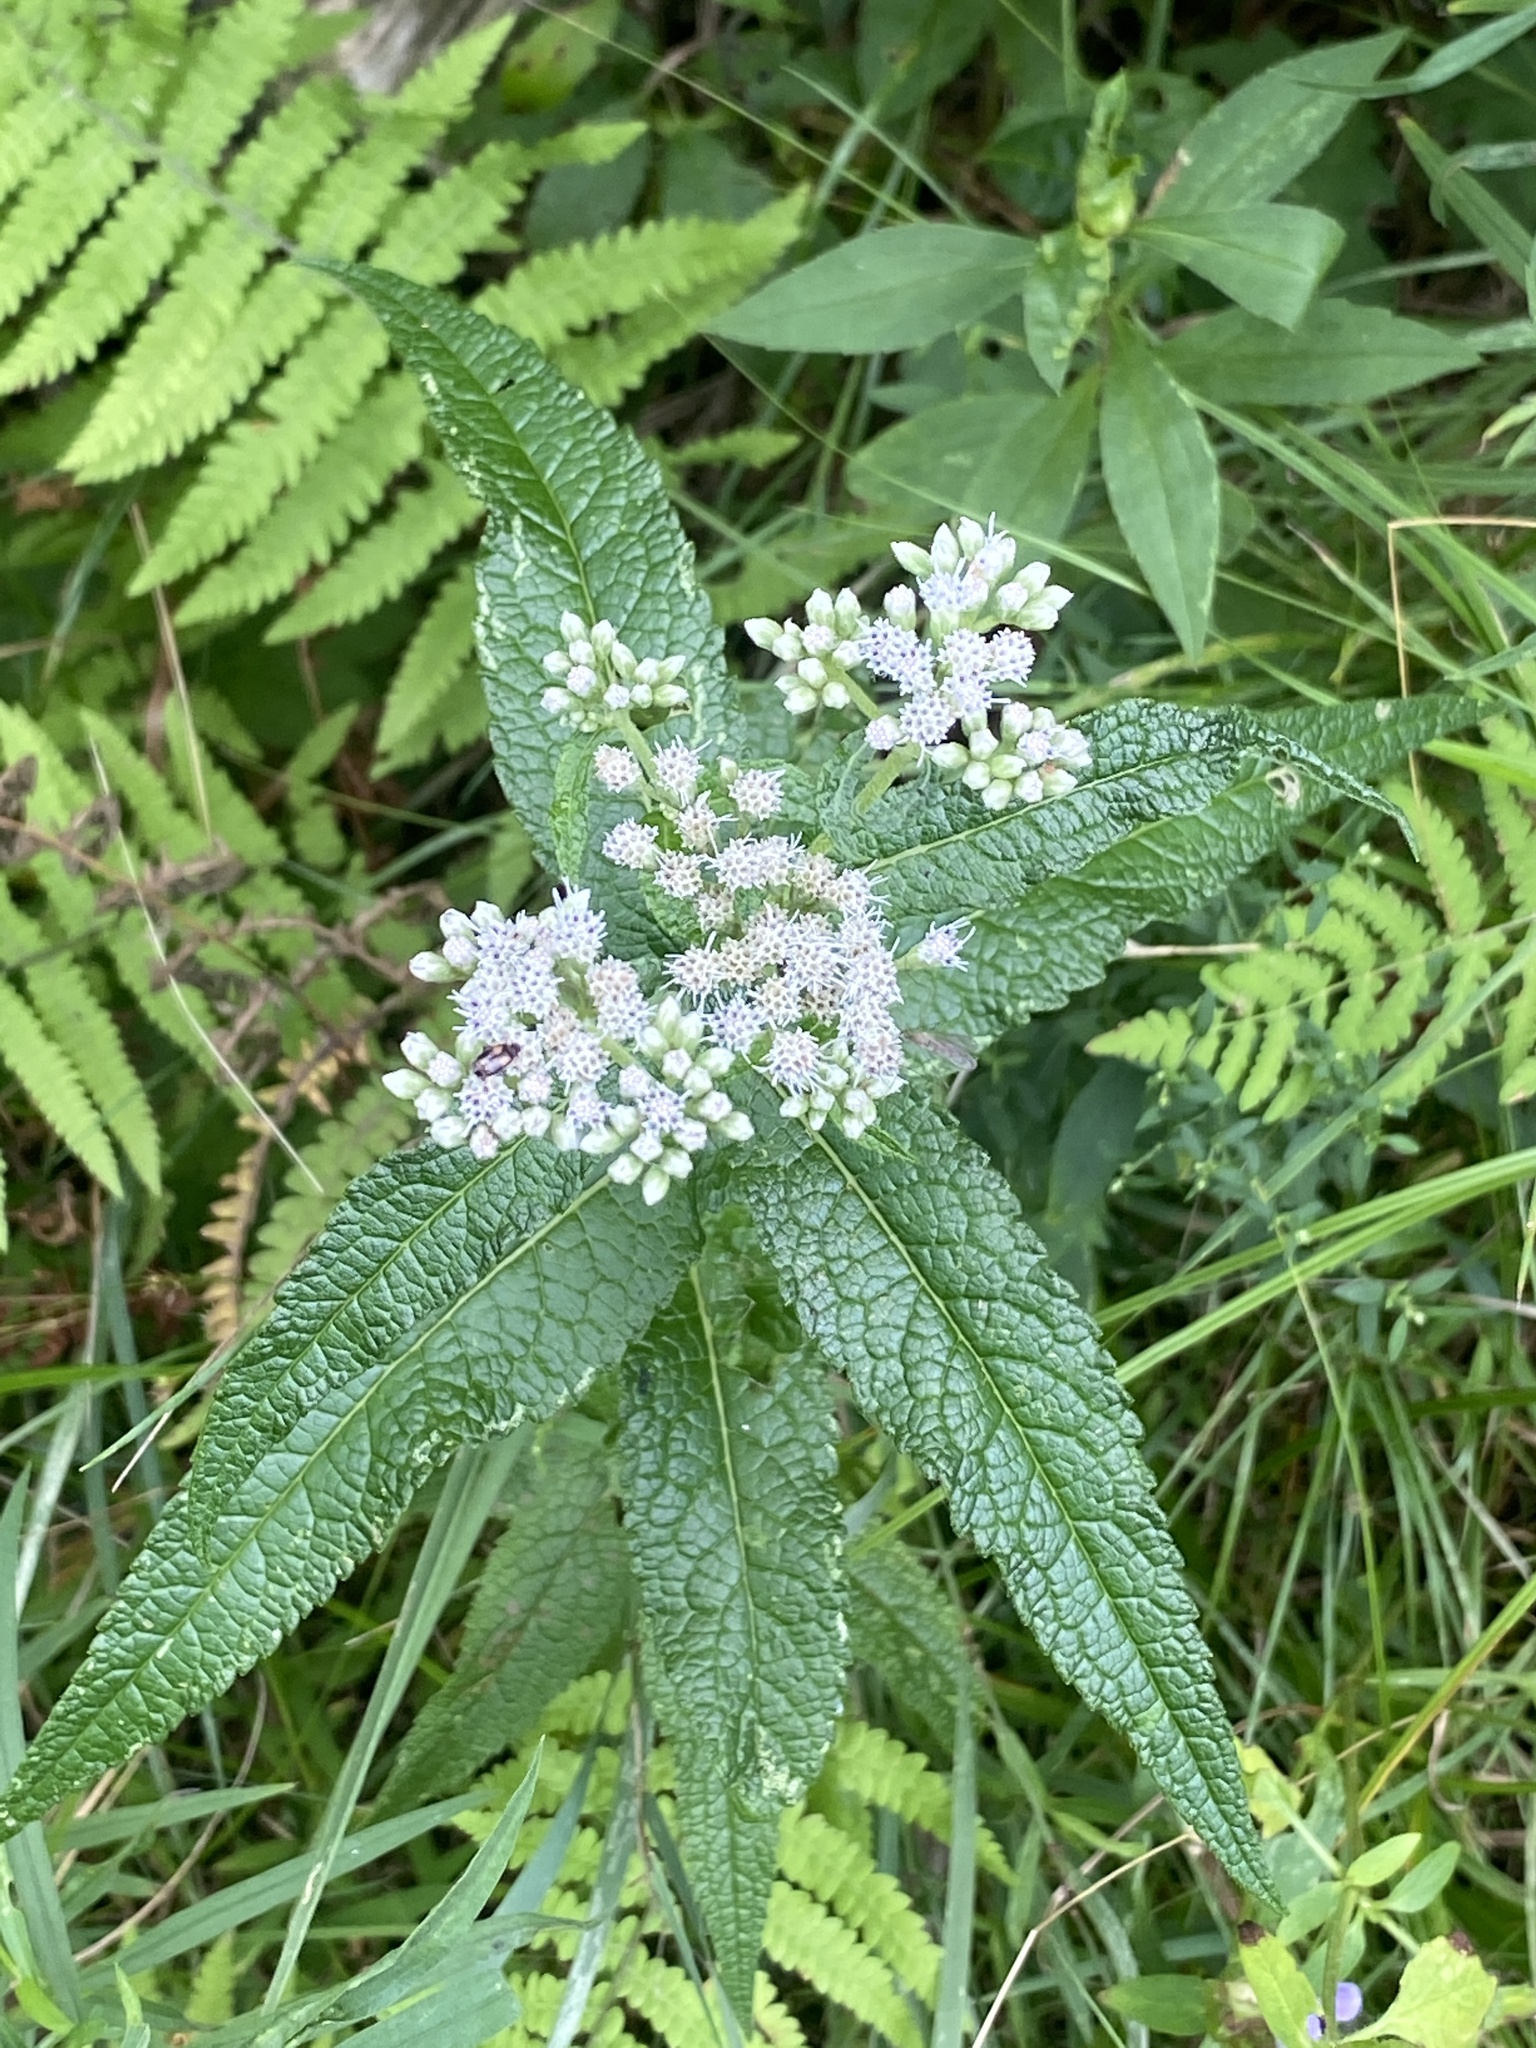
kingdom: Plantae
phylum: Tracheophyta
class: Magnoliopsida
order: Asterales
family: Asteraceae
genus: Eupatorium
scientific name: Eupatorium perfoliatum
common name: Boneset
